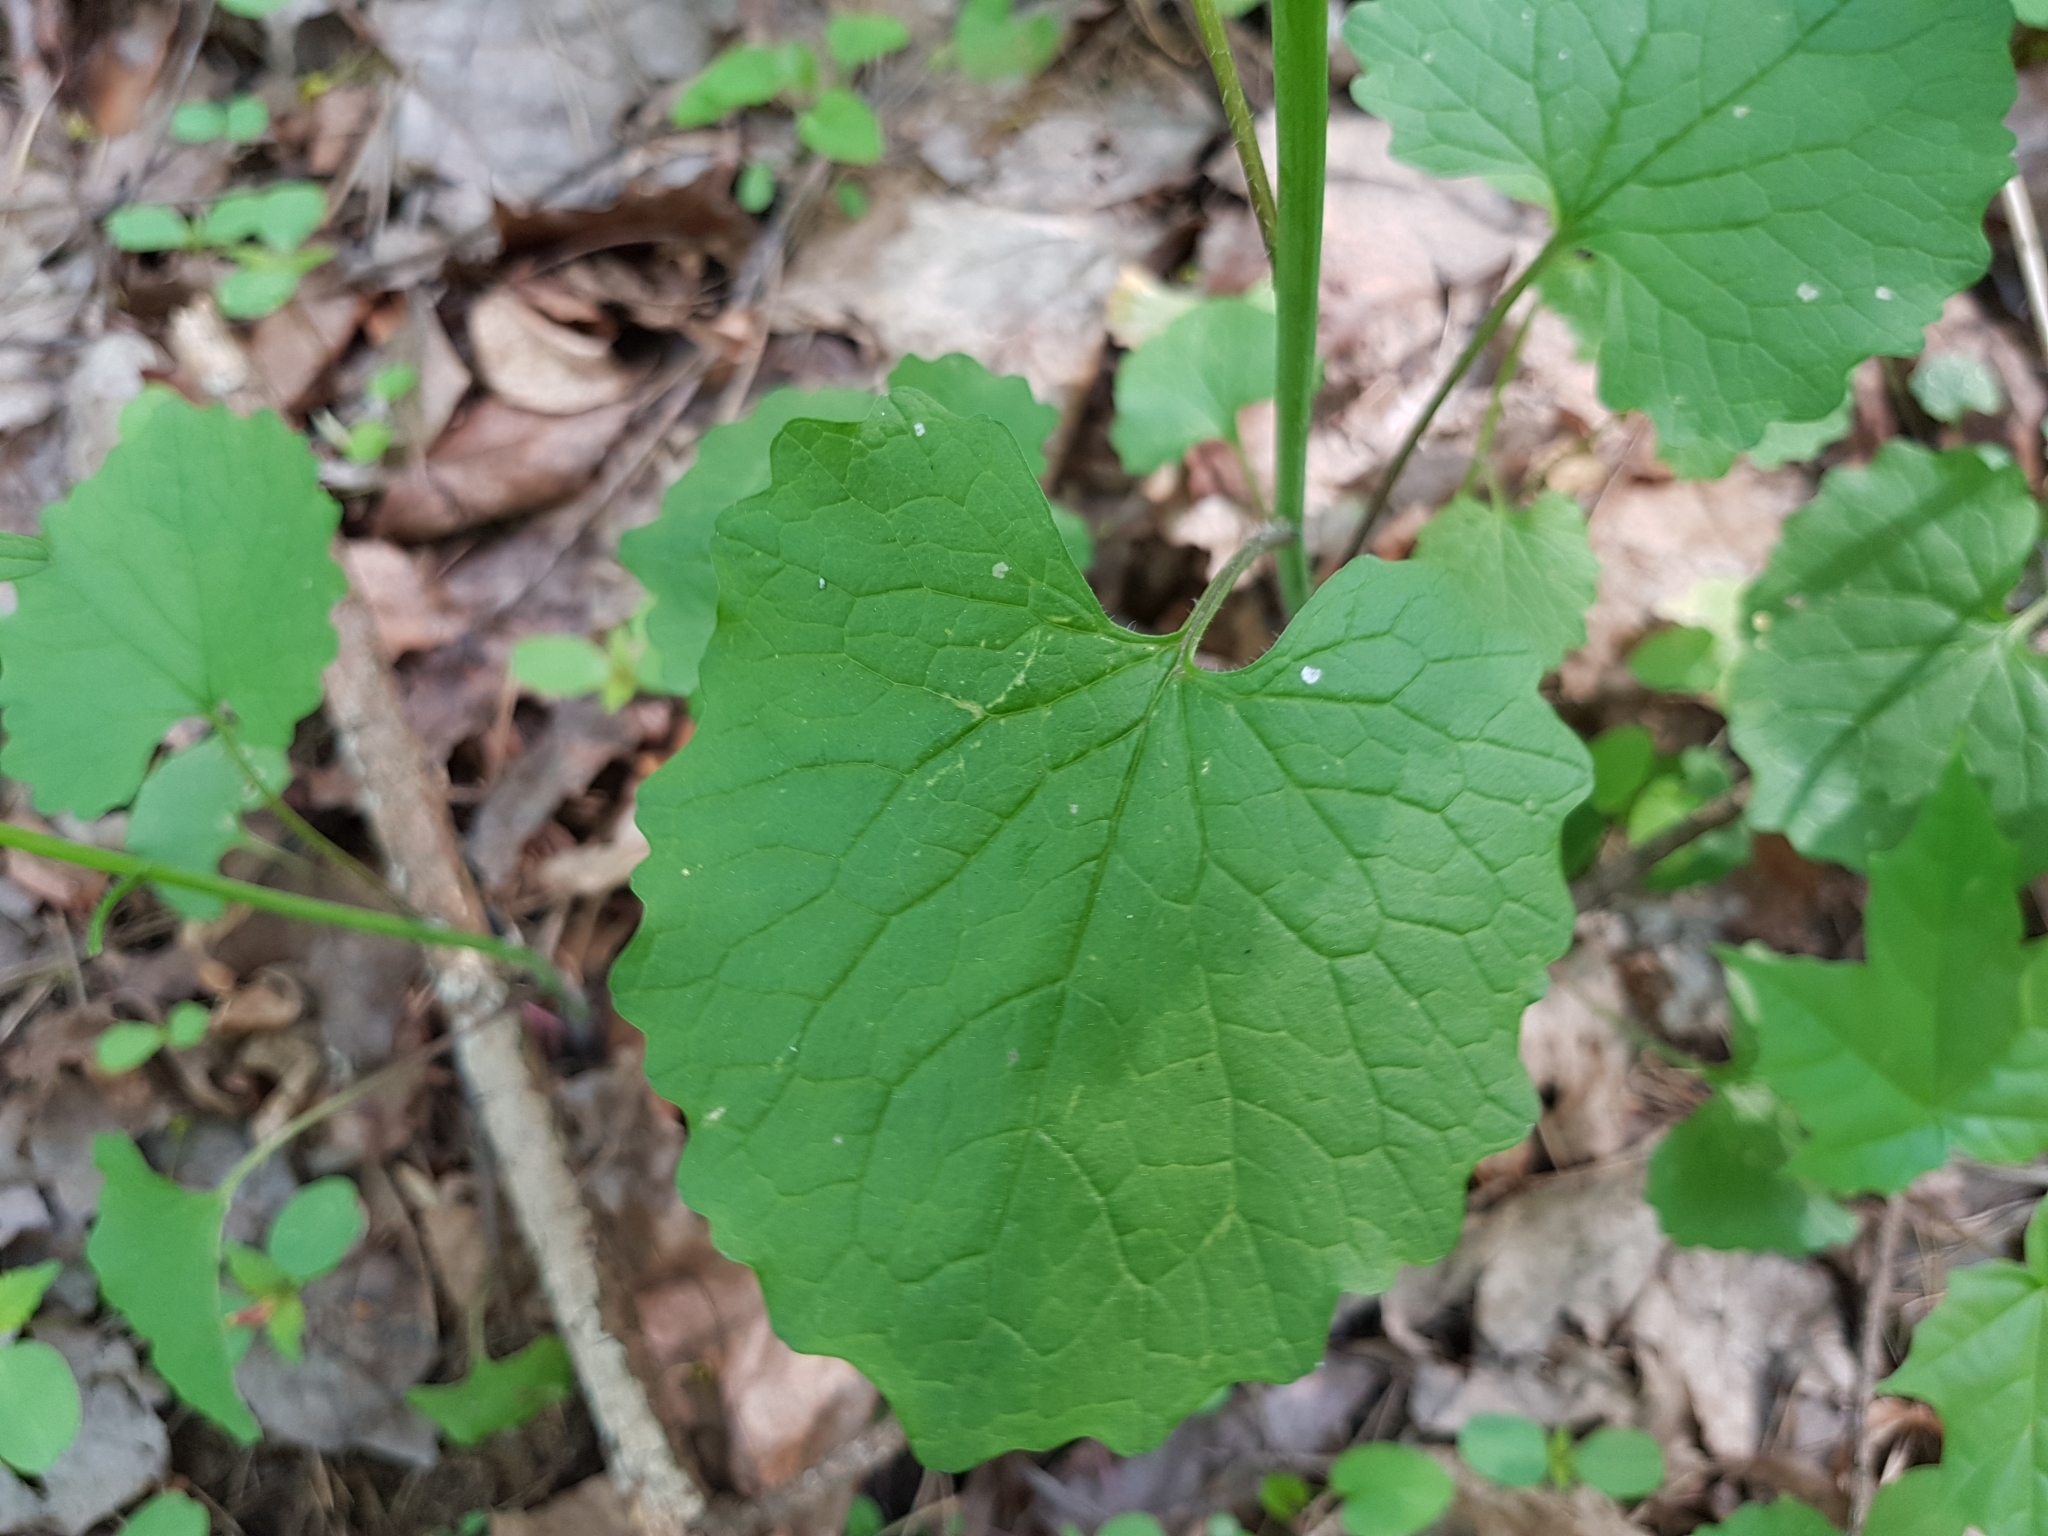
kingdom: Plantae
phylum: Tracheophyta
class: Magnoliopsida
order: Brassicales
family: Brassicaceae
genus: Alliaria
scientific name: Alliaria petiolata
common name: Garlic mustard
